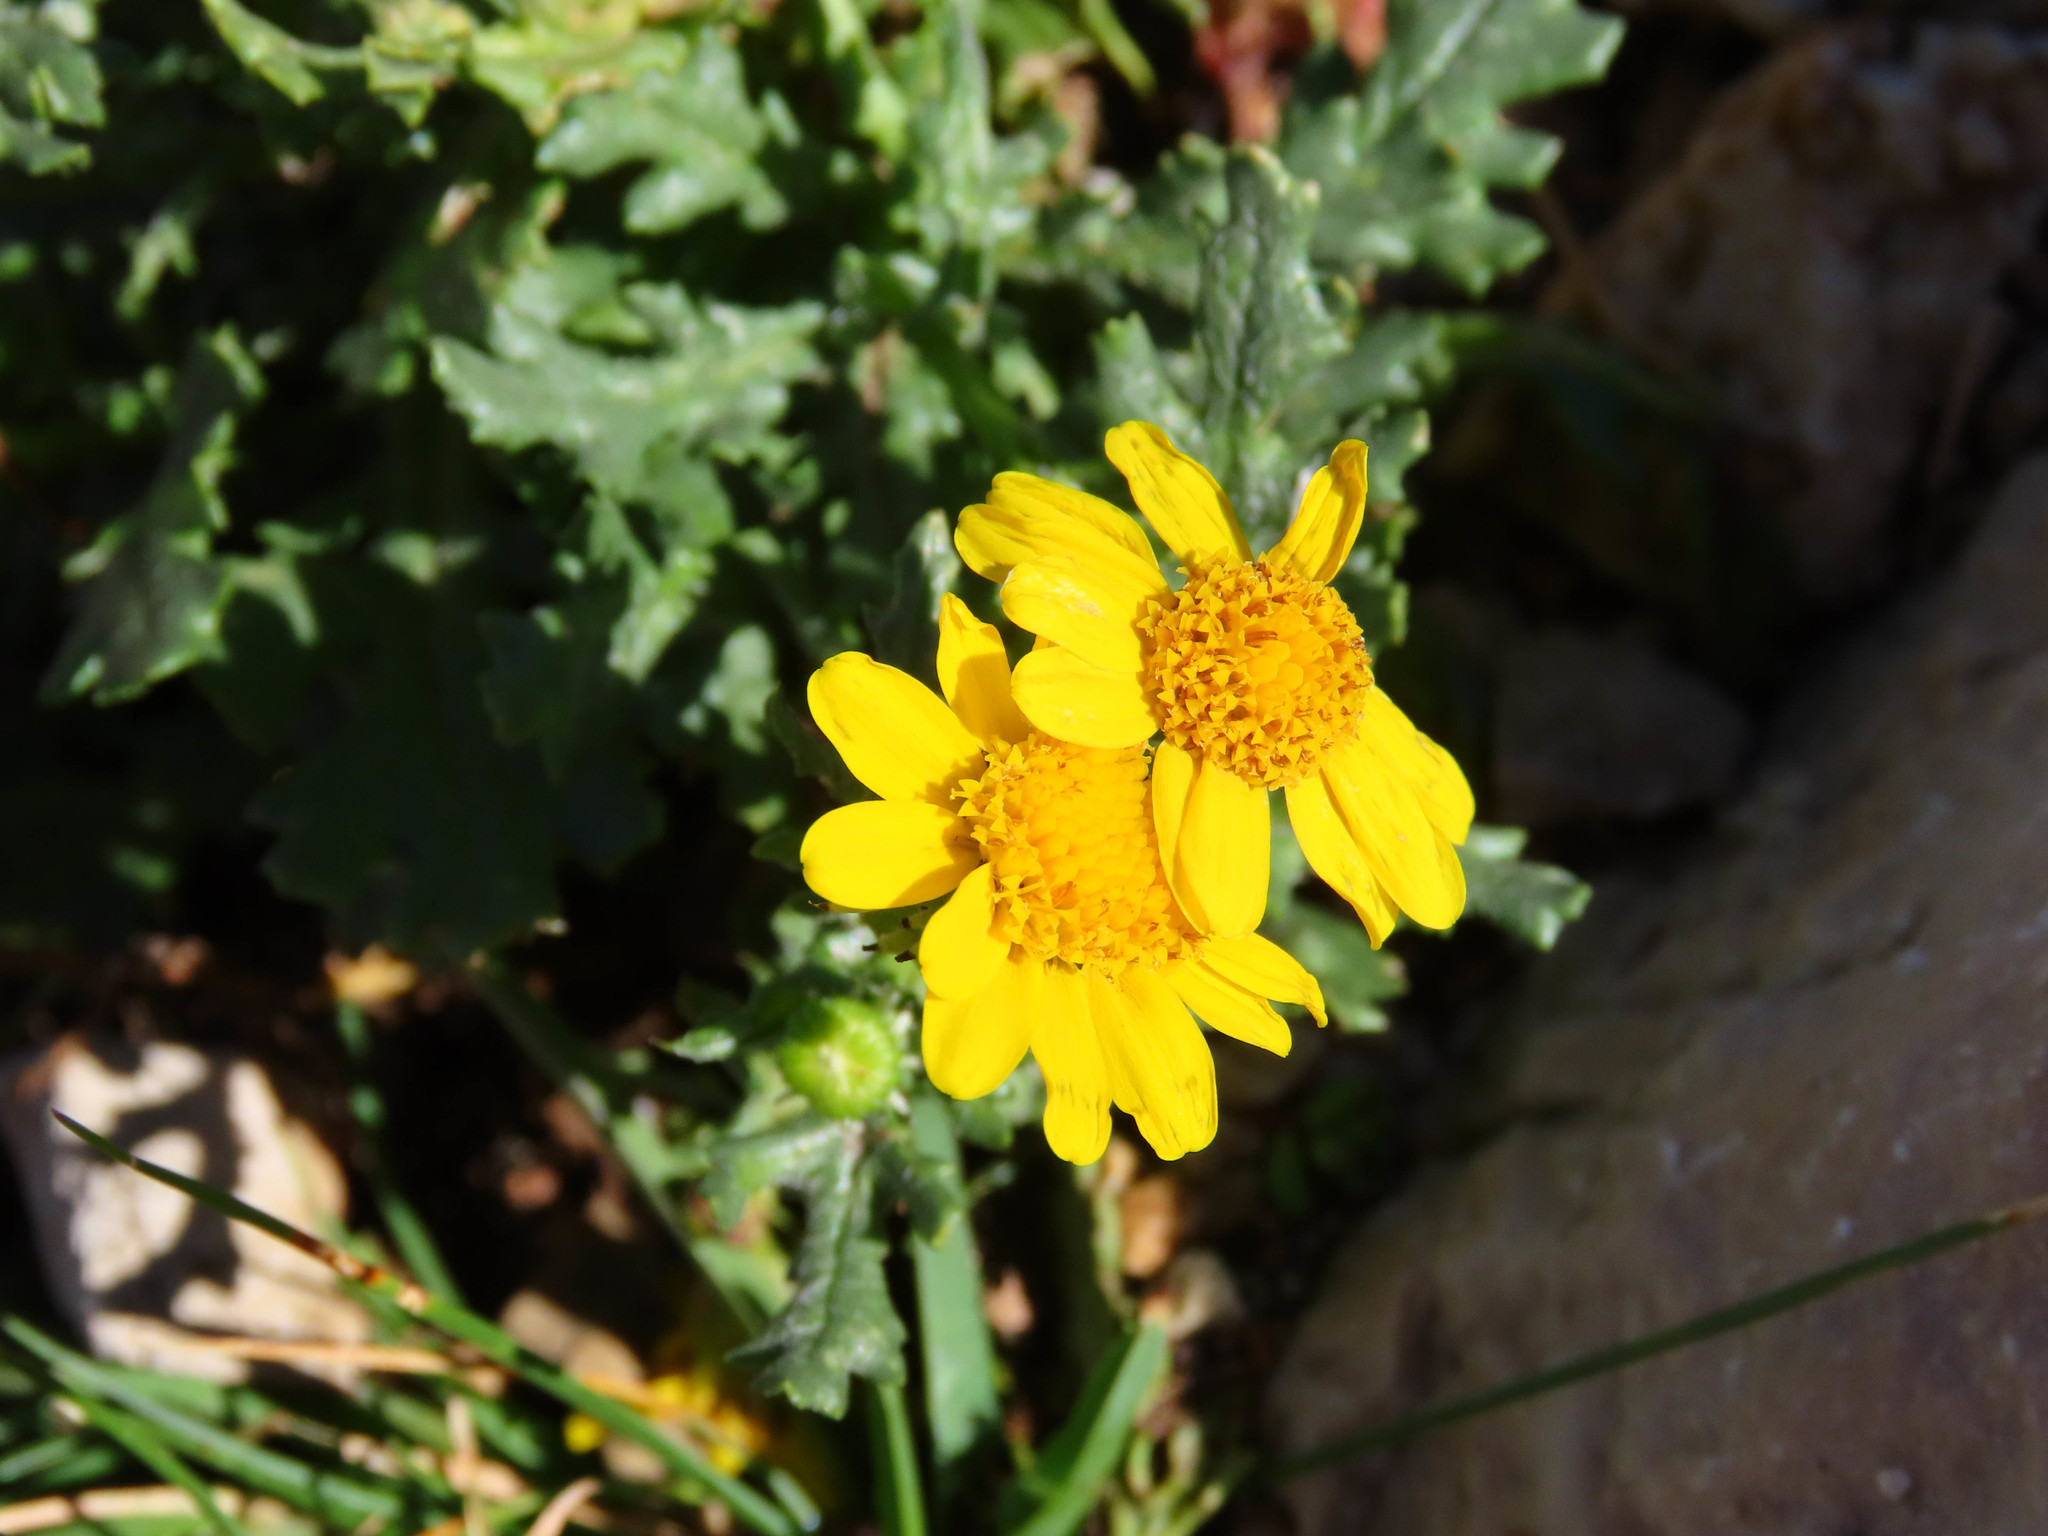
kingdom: Plantae
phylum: Tracheophyta
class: Magnoliopsida
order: Asterales
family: Asteraceae
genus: Senecio
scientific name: Senecio rupestris
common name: Rock ragwort
